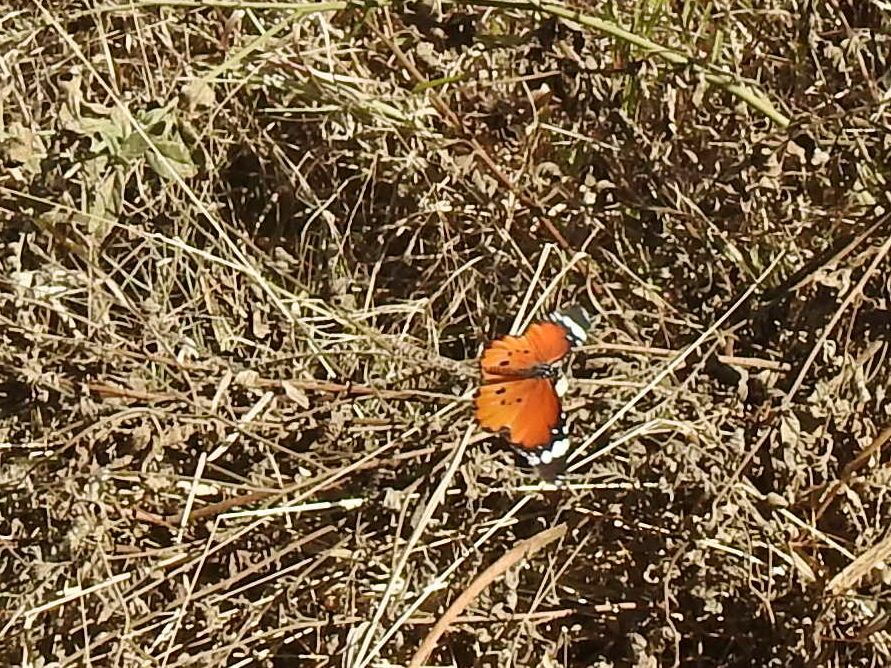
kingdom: Animalia
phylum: Arthropoda
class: Insecta
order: Lepidoptera
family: Nymphalidae
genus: Danaus
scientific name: Danaus chrysippus
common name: Plain tiger
